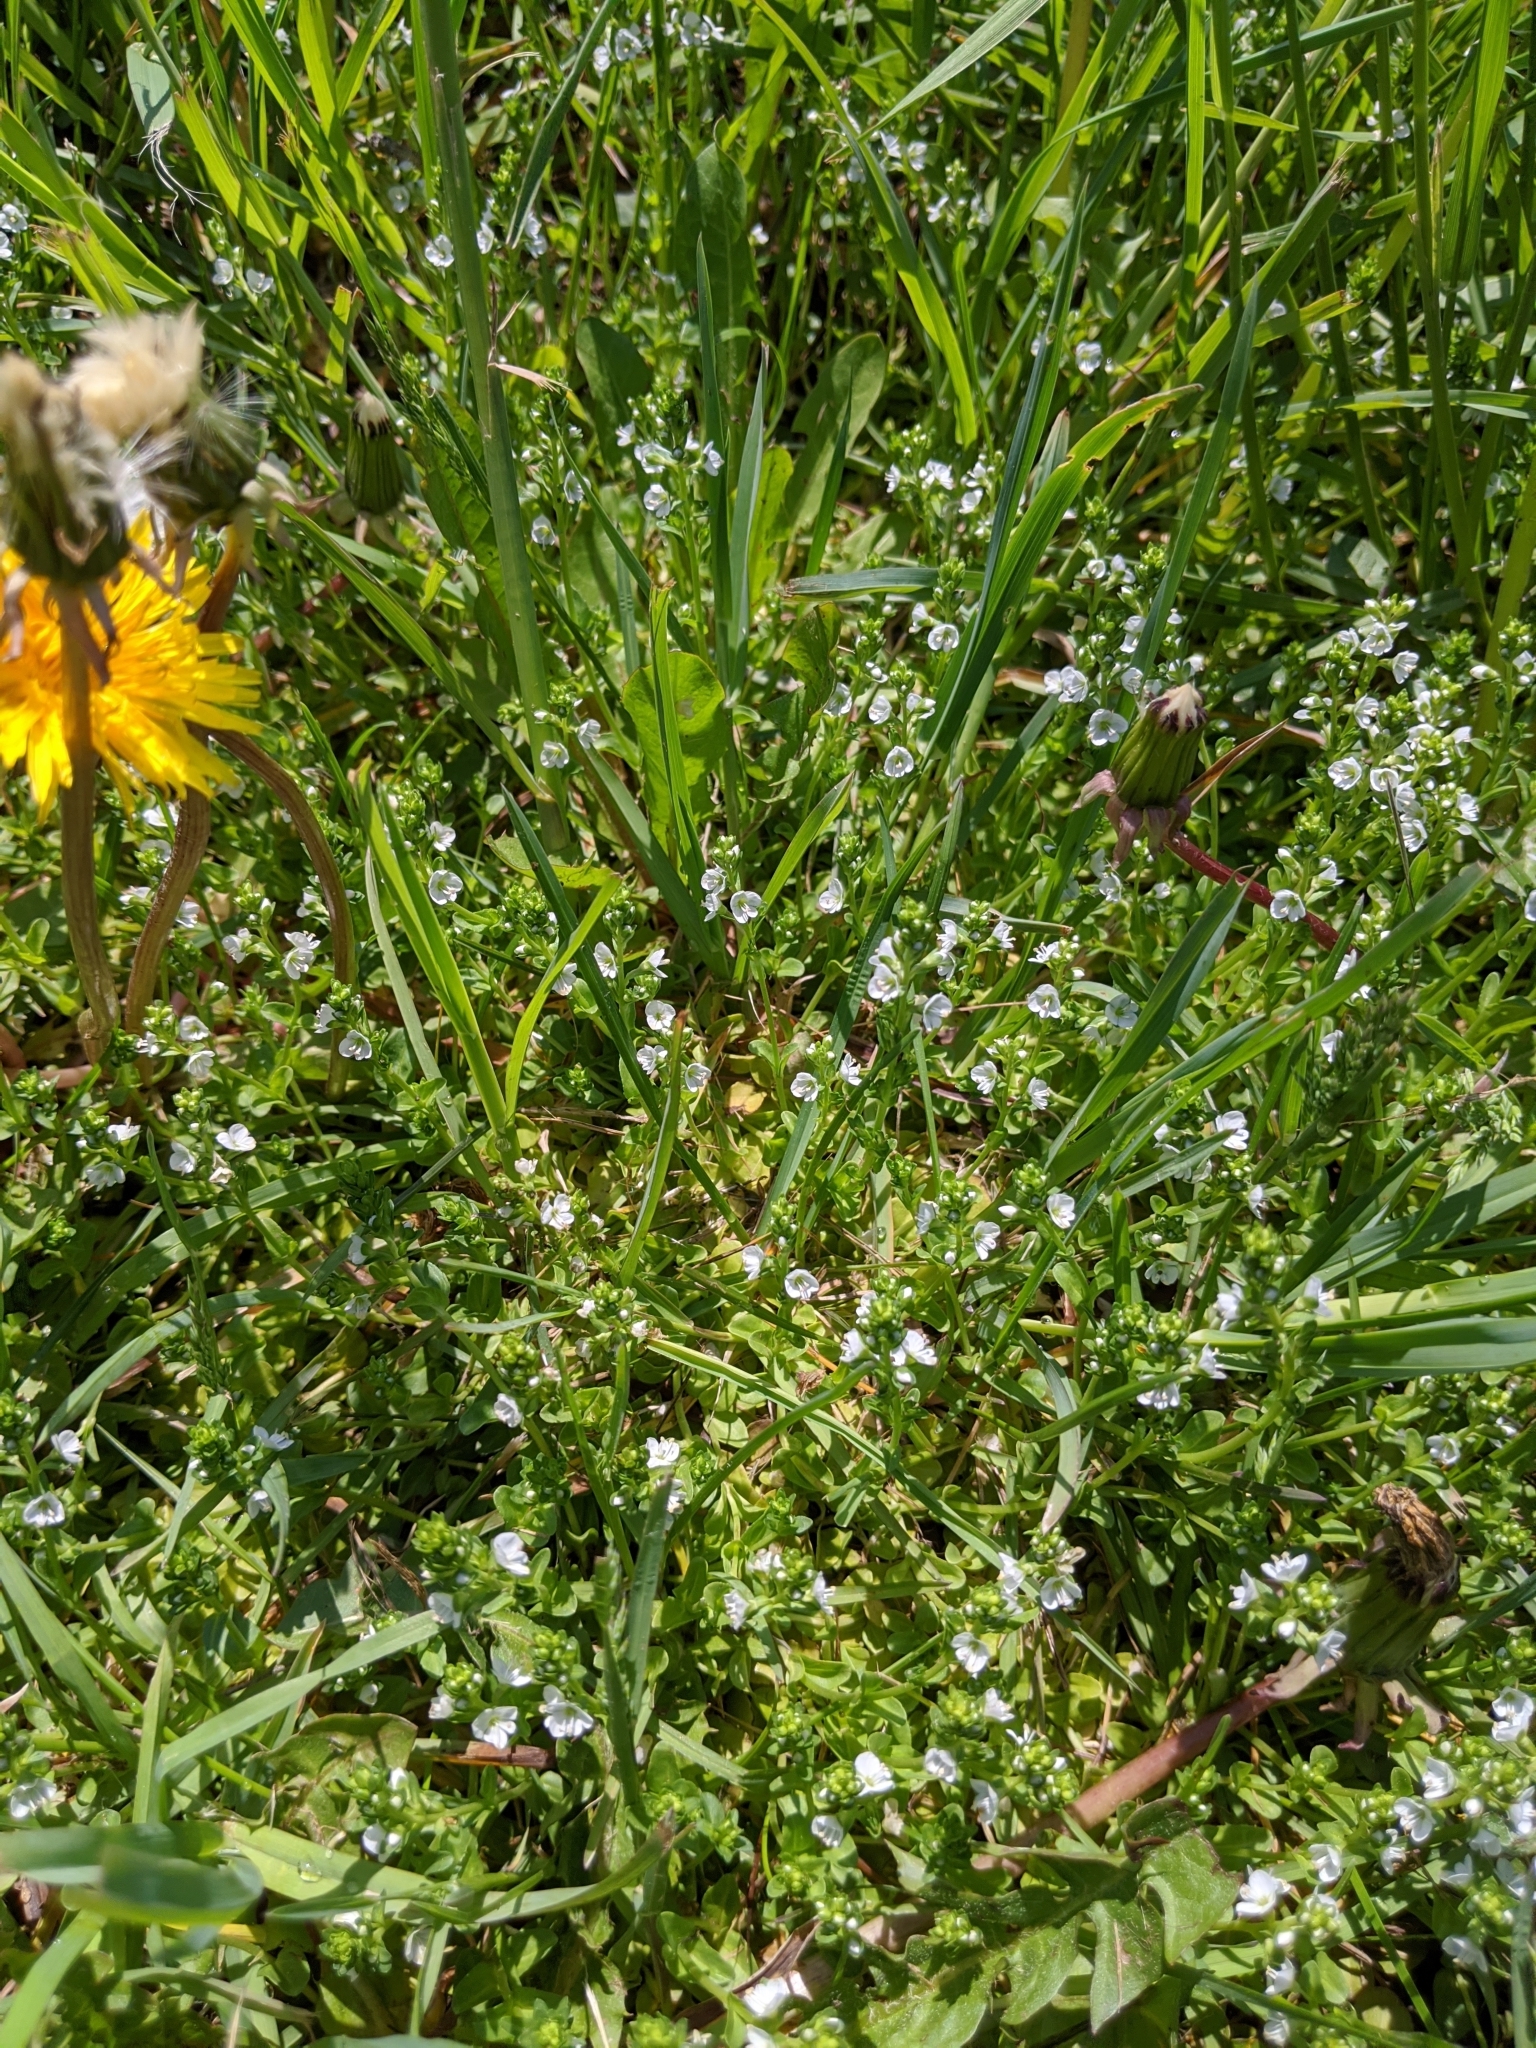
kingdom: Plantae
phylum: Tracheophyta
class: Magnoliopsida
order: Lamiales
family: Plantaginaceae
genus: Veronica
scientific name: Veronica serpyllifolia
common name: Thyme-leaved speedwell
